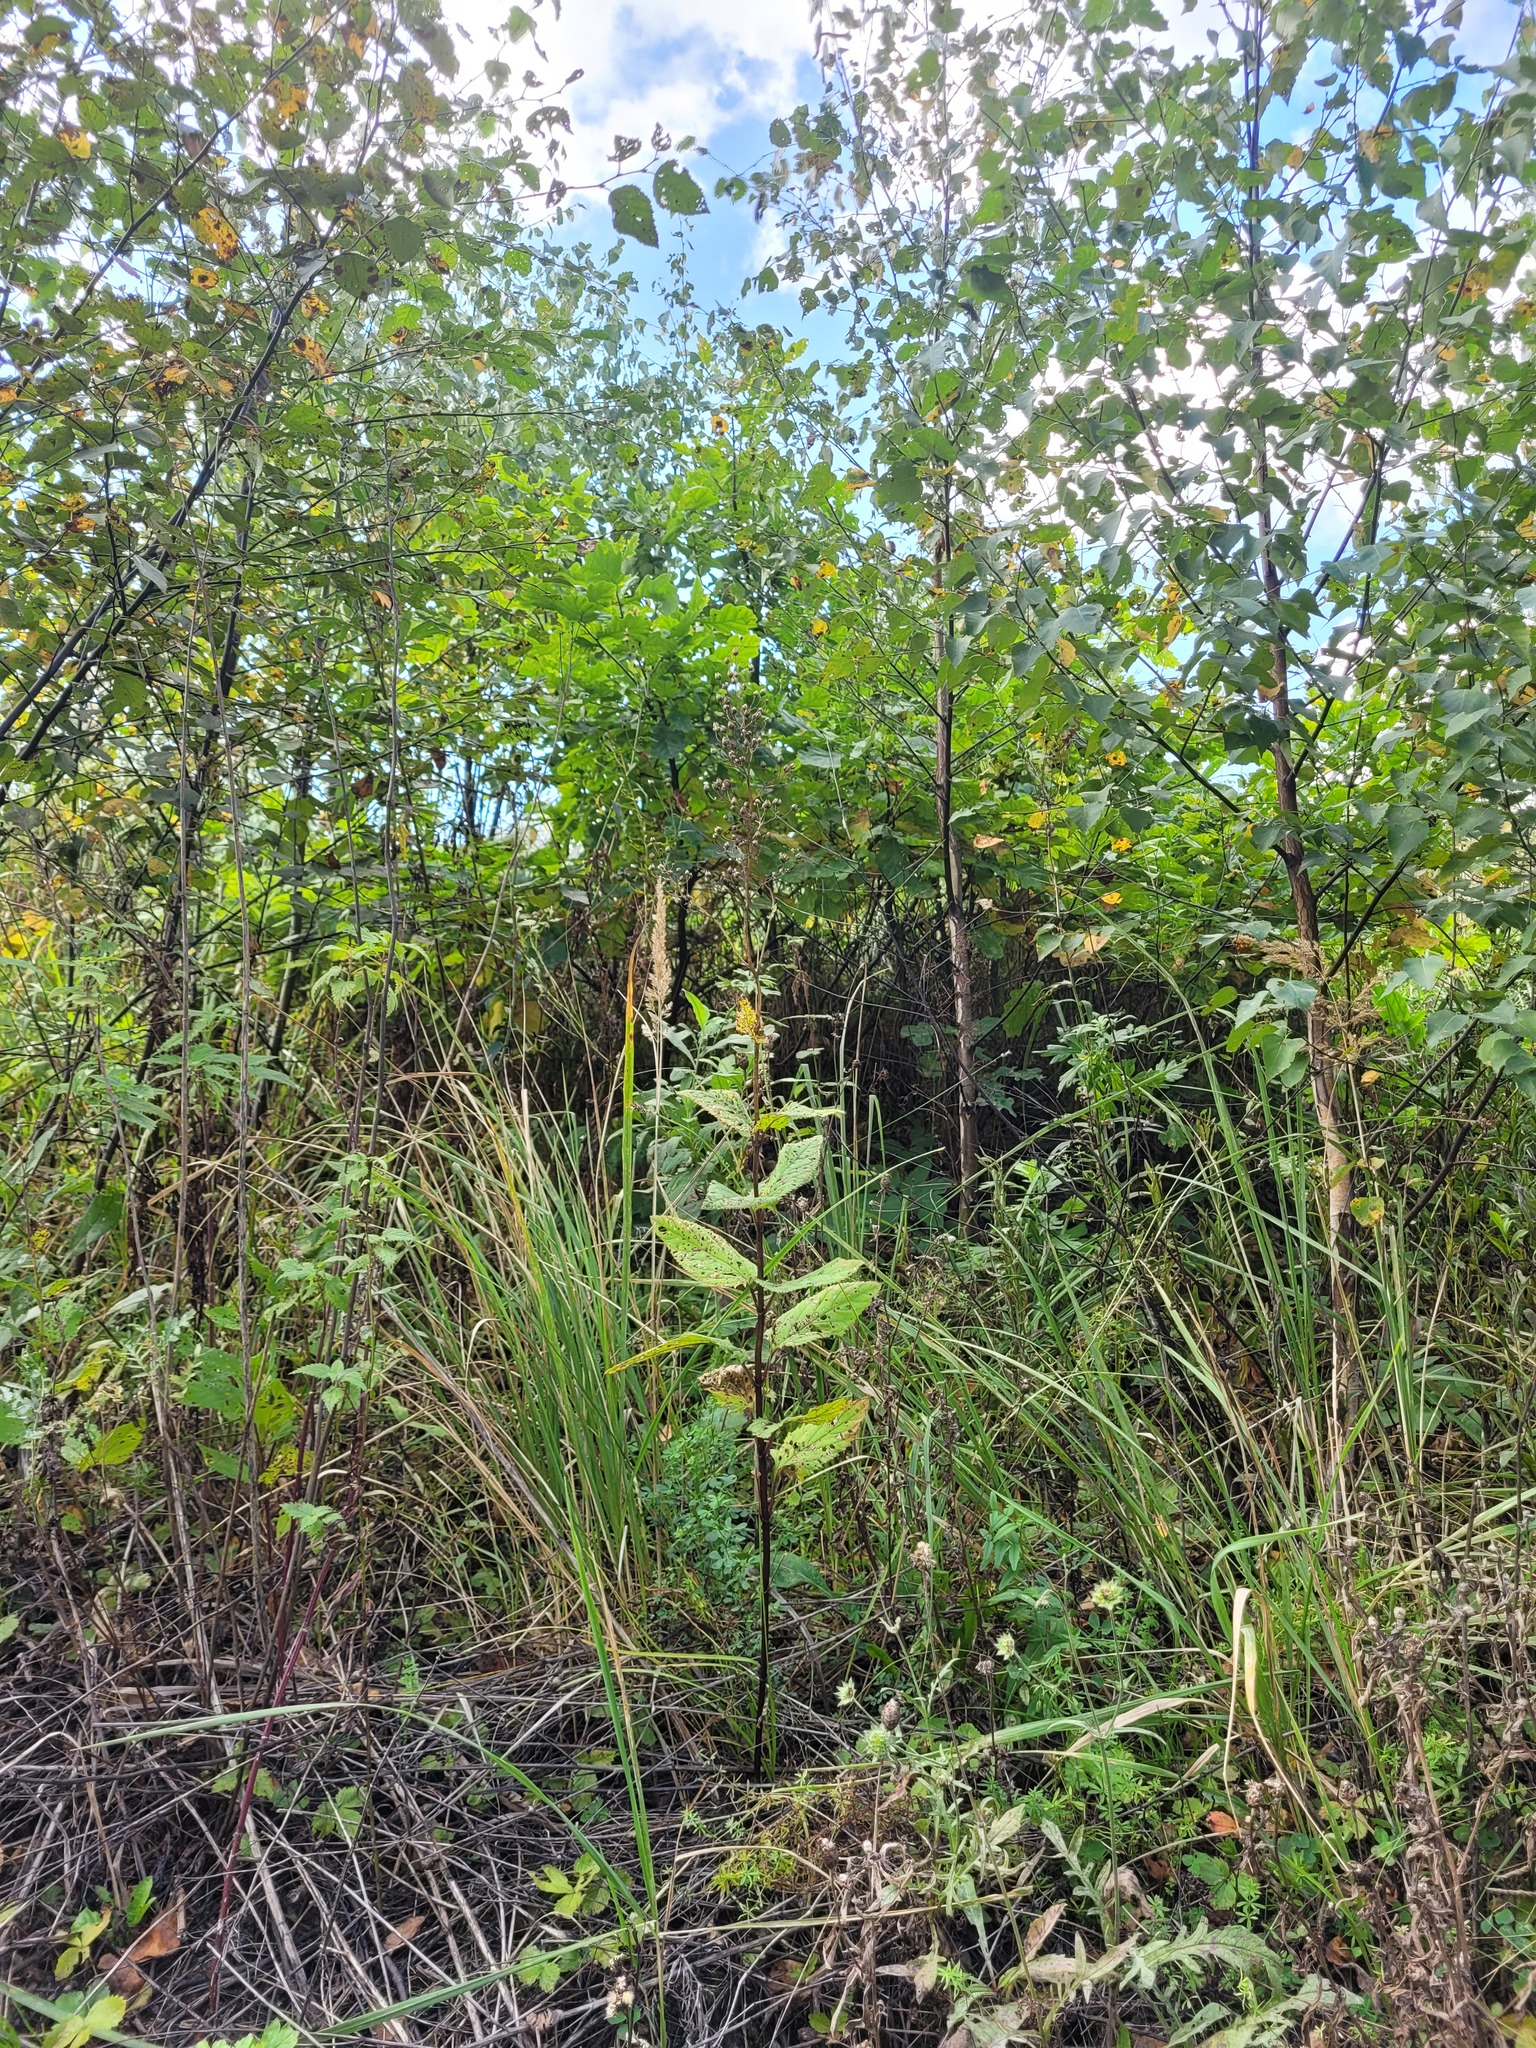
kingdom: Plantae
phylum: Tracheophyta
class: Magnoliopsida
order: Lamiales
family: Scrophulariaceae
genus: Scrophularia
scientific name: Scrophularia nodosa
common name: Common figwort
